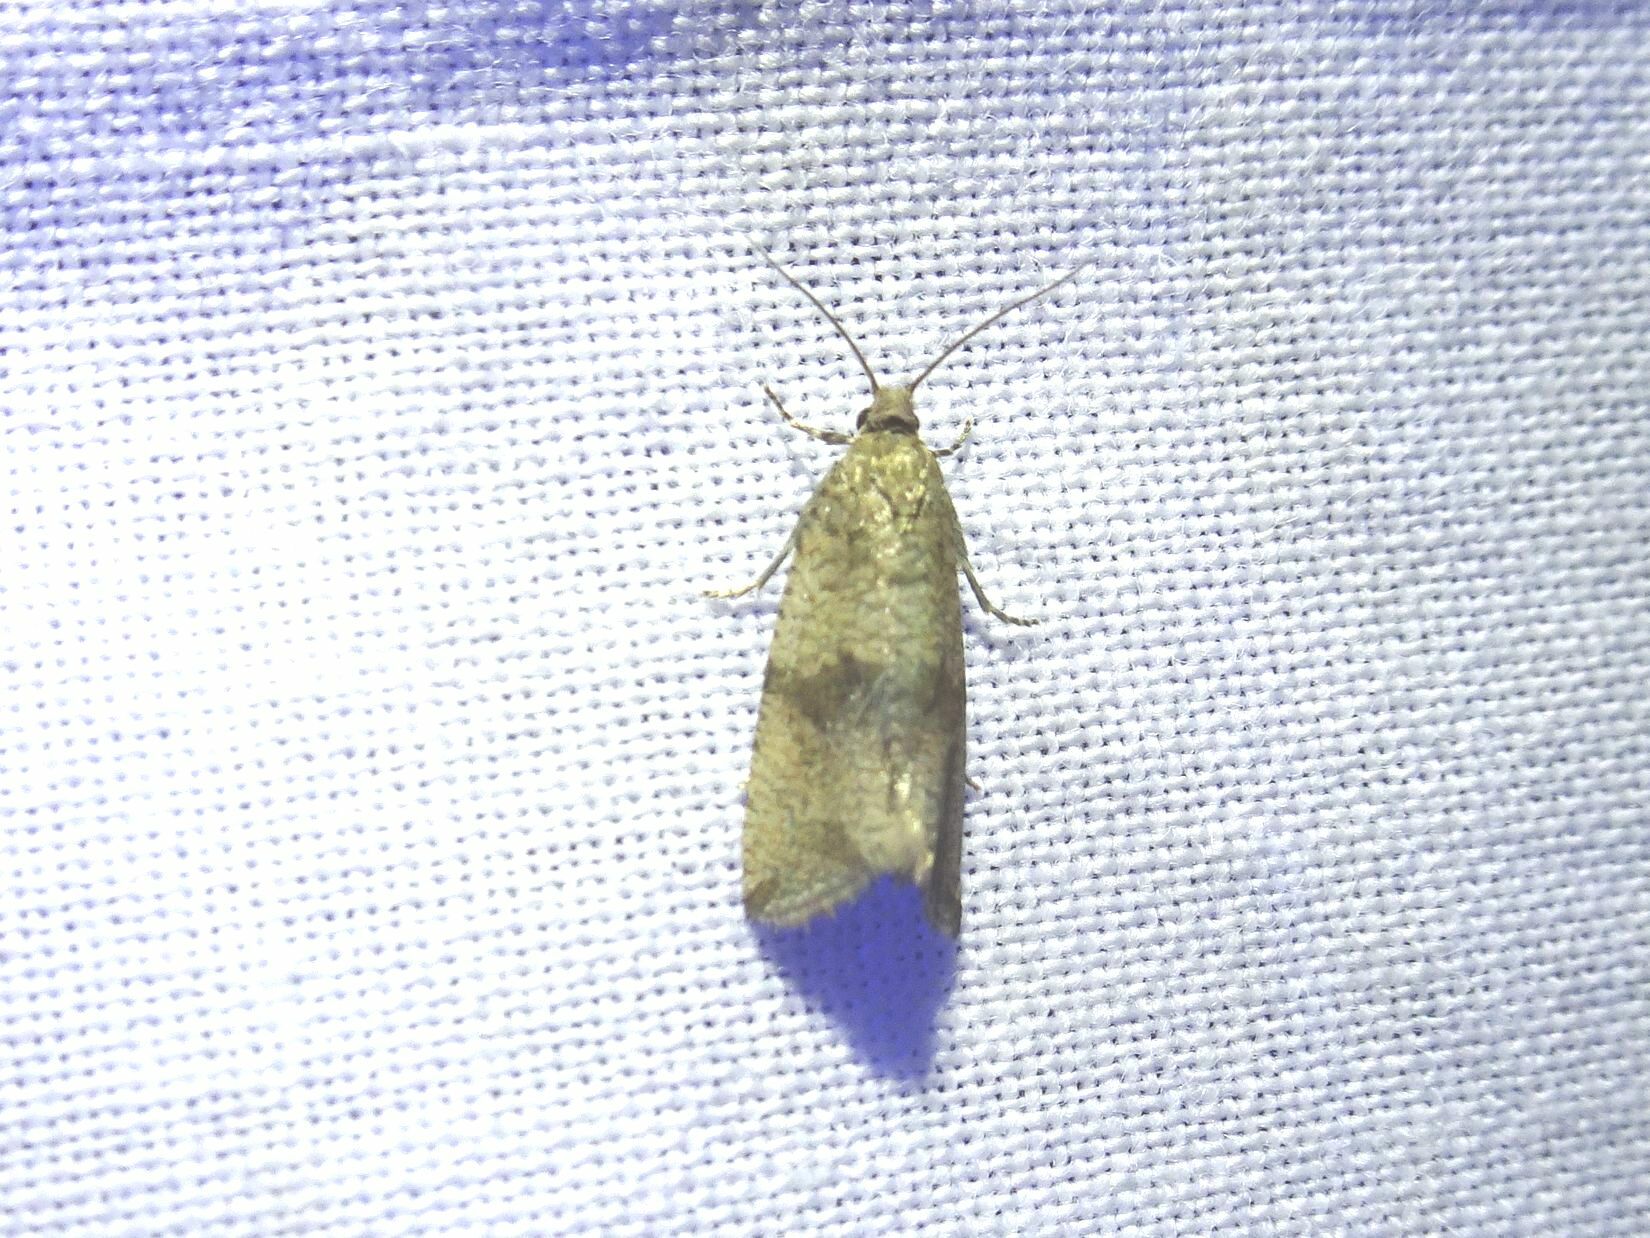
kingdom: Animalia
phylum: Arthropoda
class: Insecta
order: Lepidoptera
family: Tortricidae
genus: Celypha
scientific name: Celypha striana
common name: Barred marble
